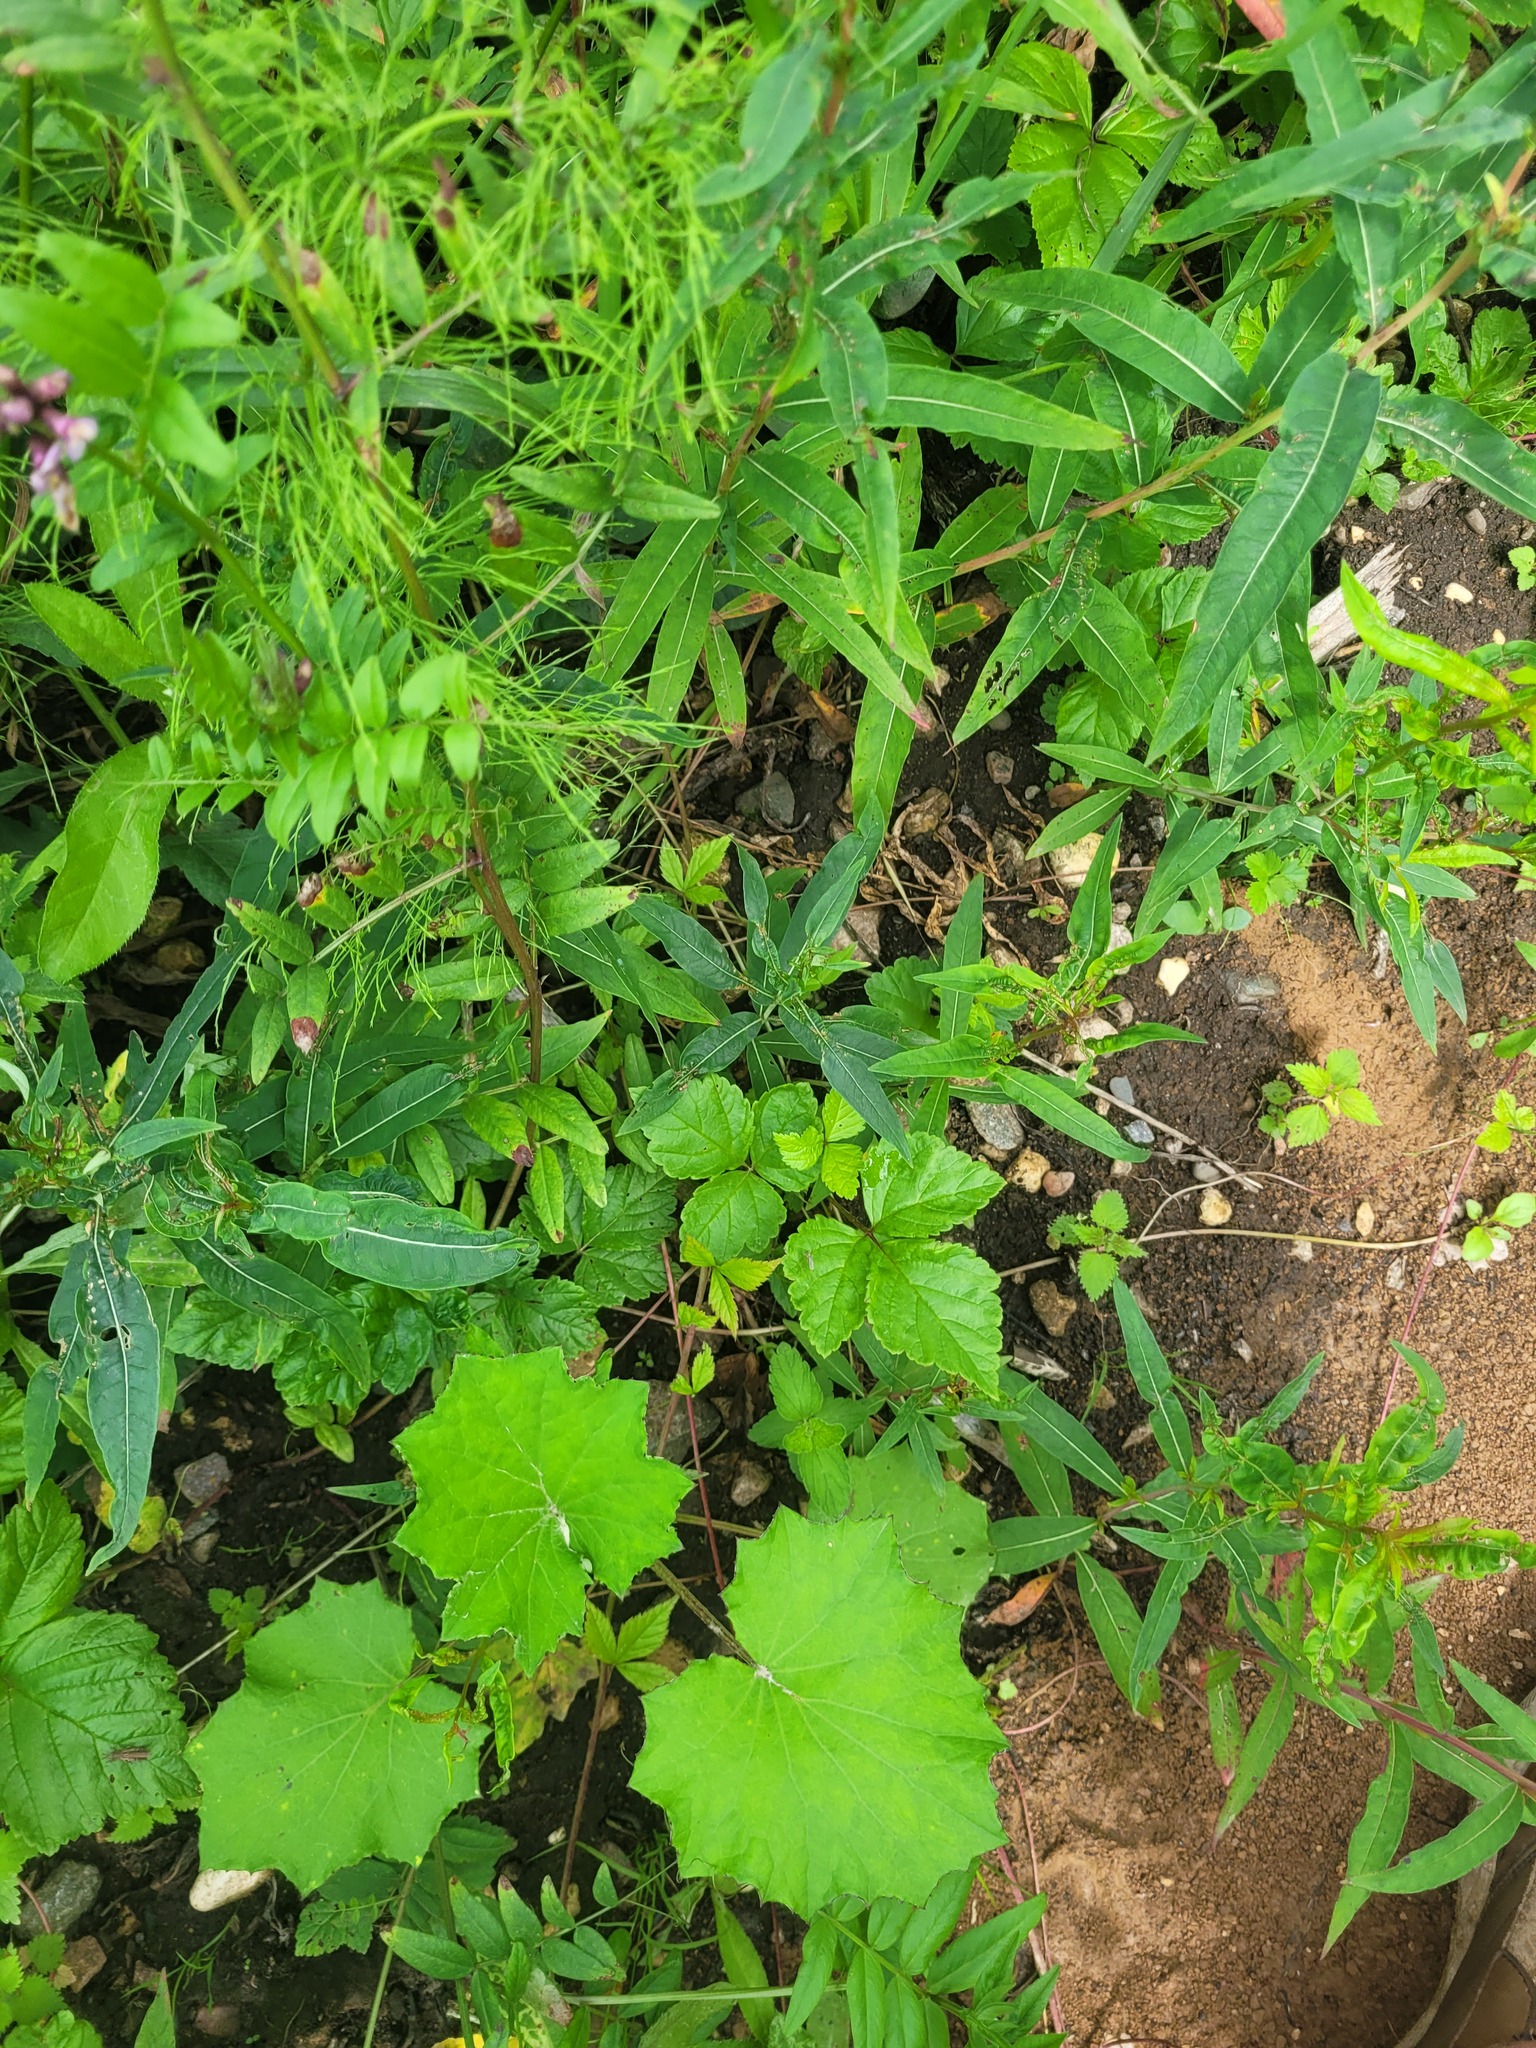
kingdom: Plantae
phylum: Tracheophyta
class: Magnoliopsida
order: Myrtales
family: Onagraceae
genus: Chamaenerion
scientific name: Chamaenerion angustifolium
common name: Fireweed
